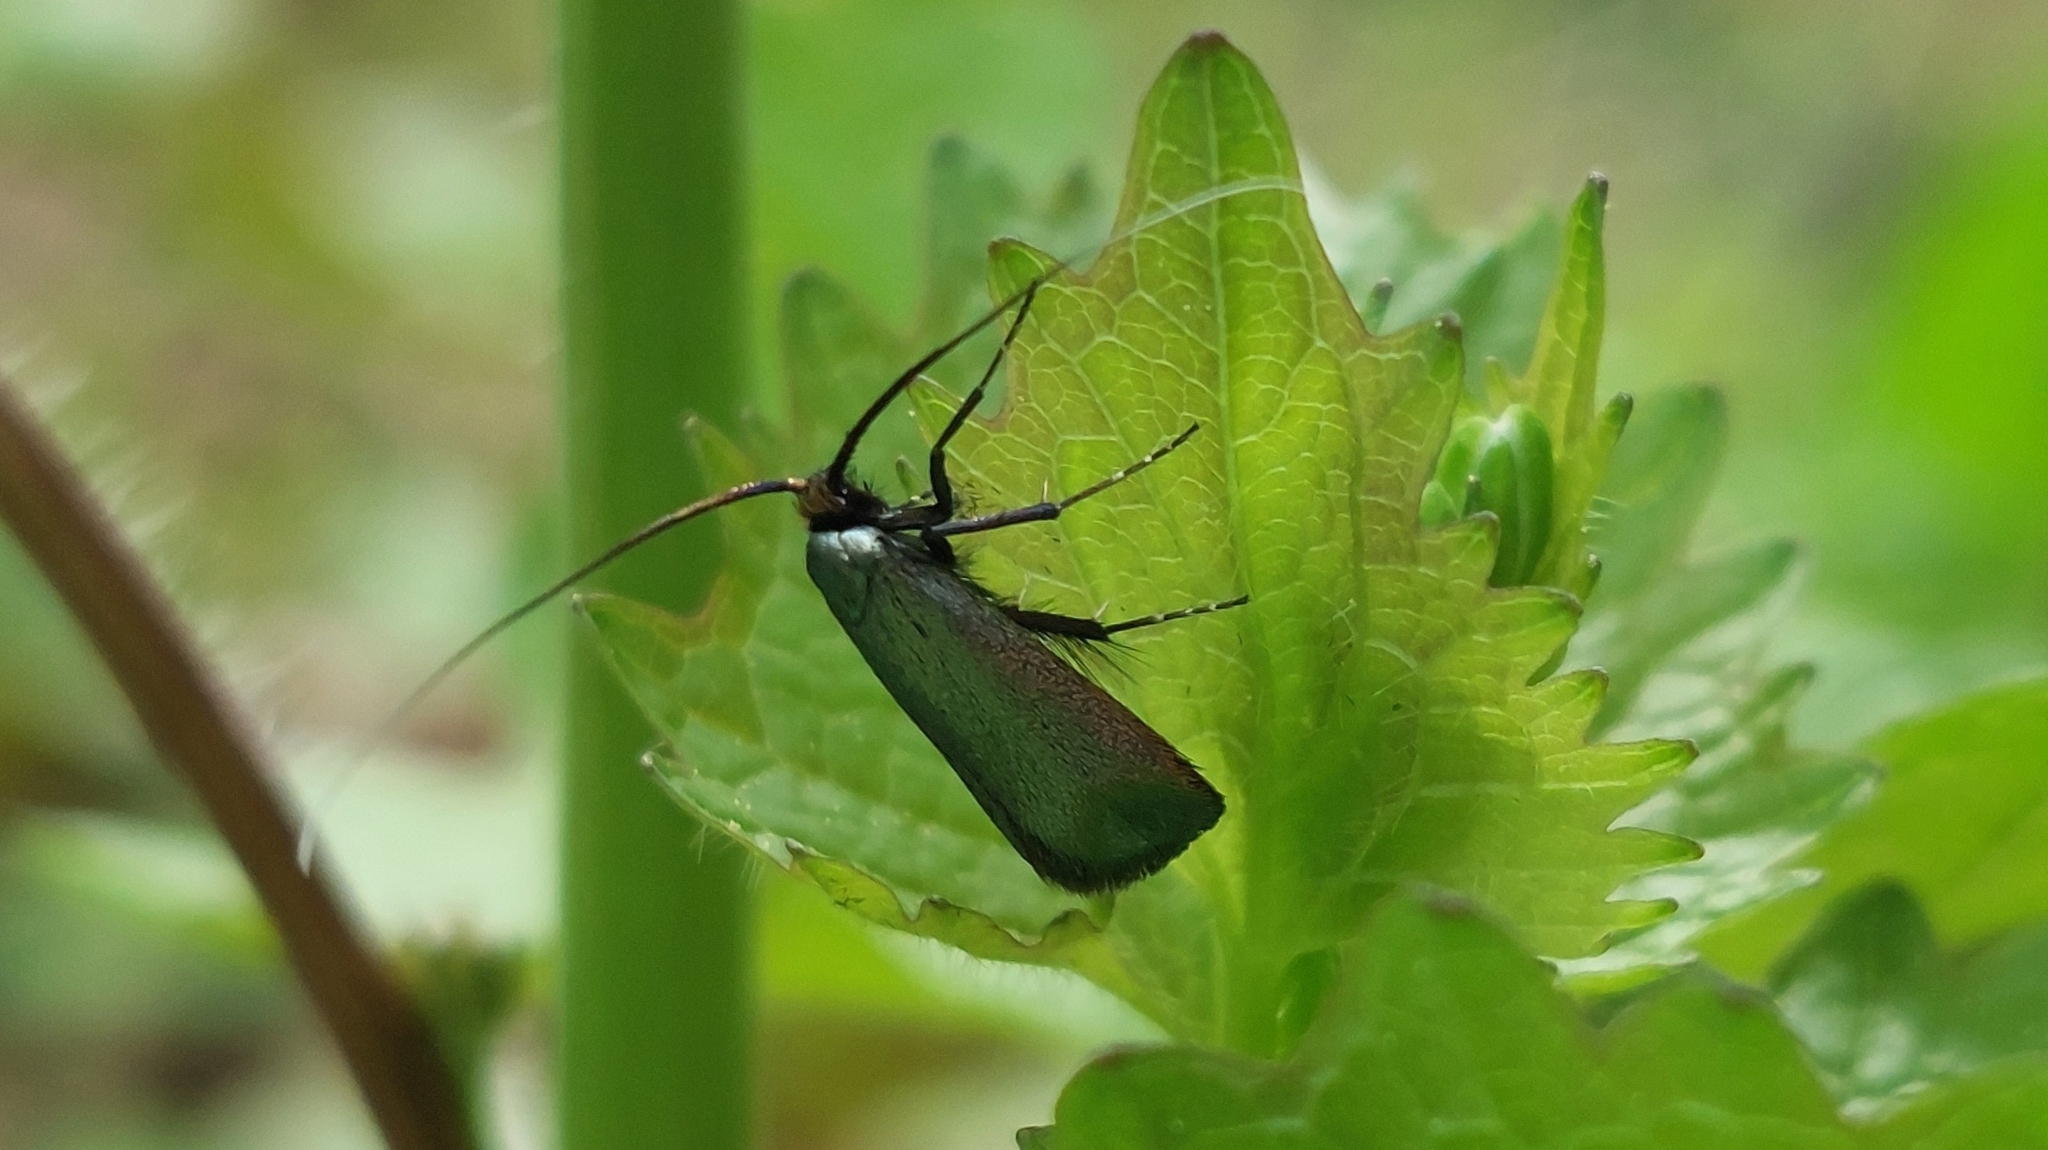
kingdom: Animalia
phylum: Arthropoda
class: Insecta
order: Lepidoptera
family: Adelidae
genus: Adela
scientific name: Adela viridella
